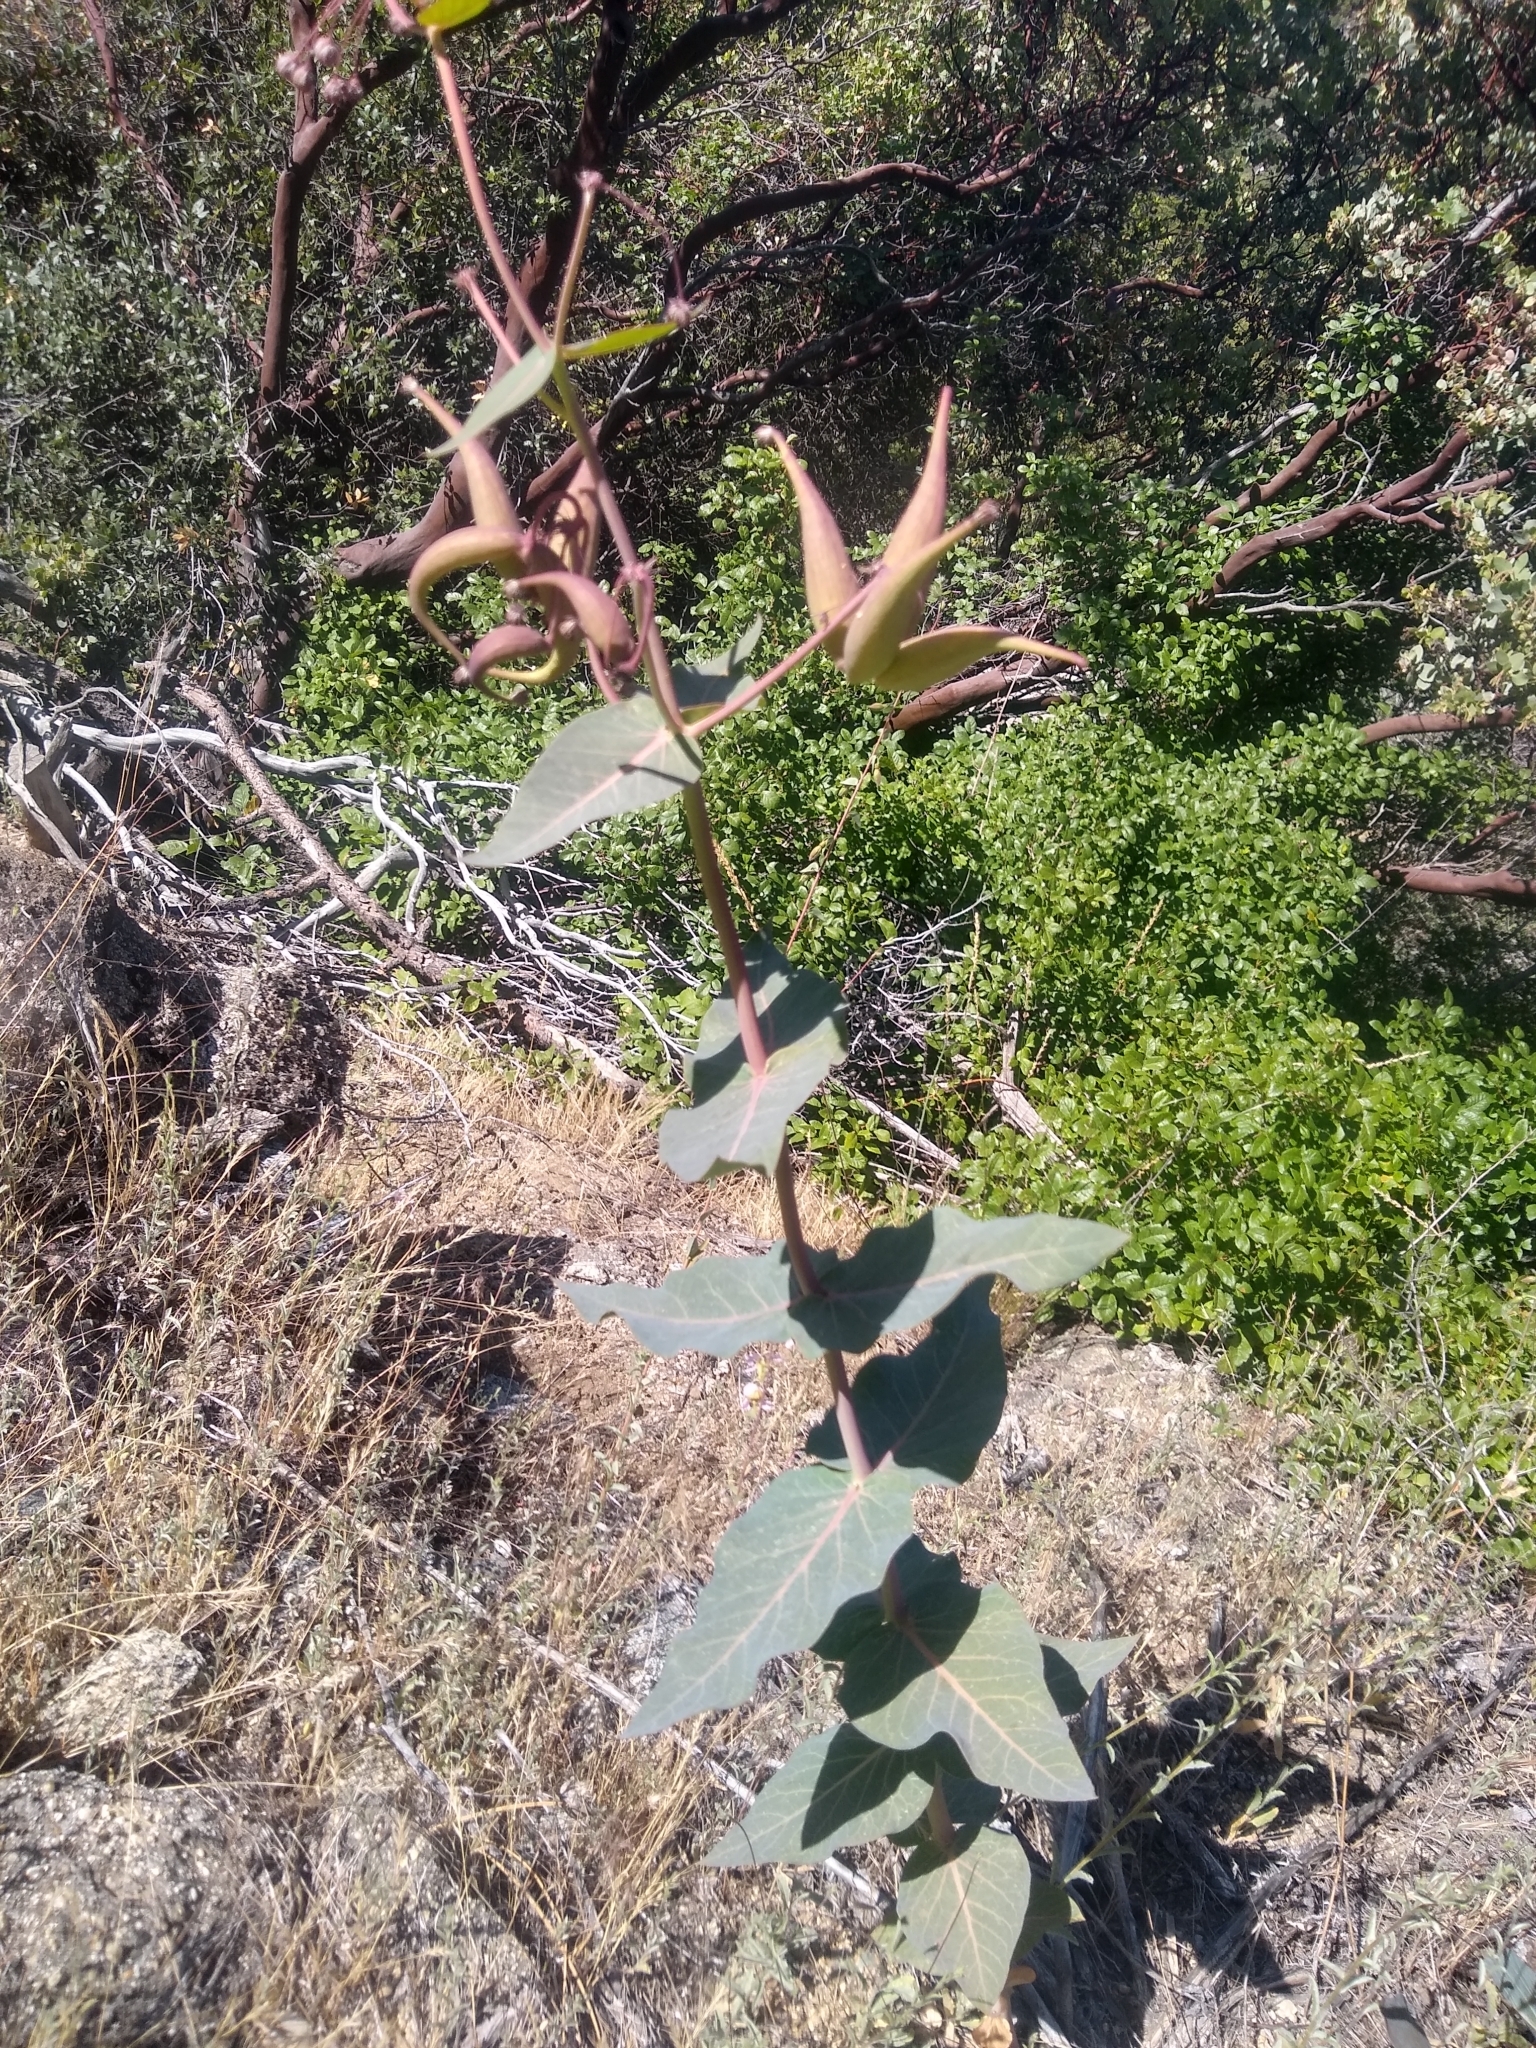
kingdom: Plantae
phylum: Tracheophyta
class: Magnoliopsida
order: Gentianales
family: Apocynaceae
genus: Asclepias
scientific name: Asclepias cordifolia
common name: Purple milkweed
